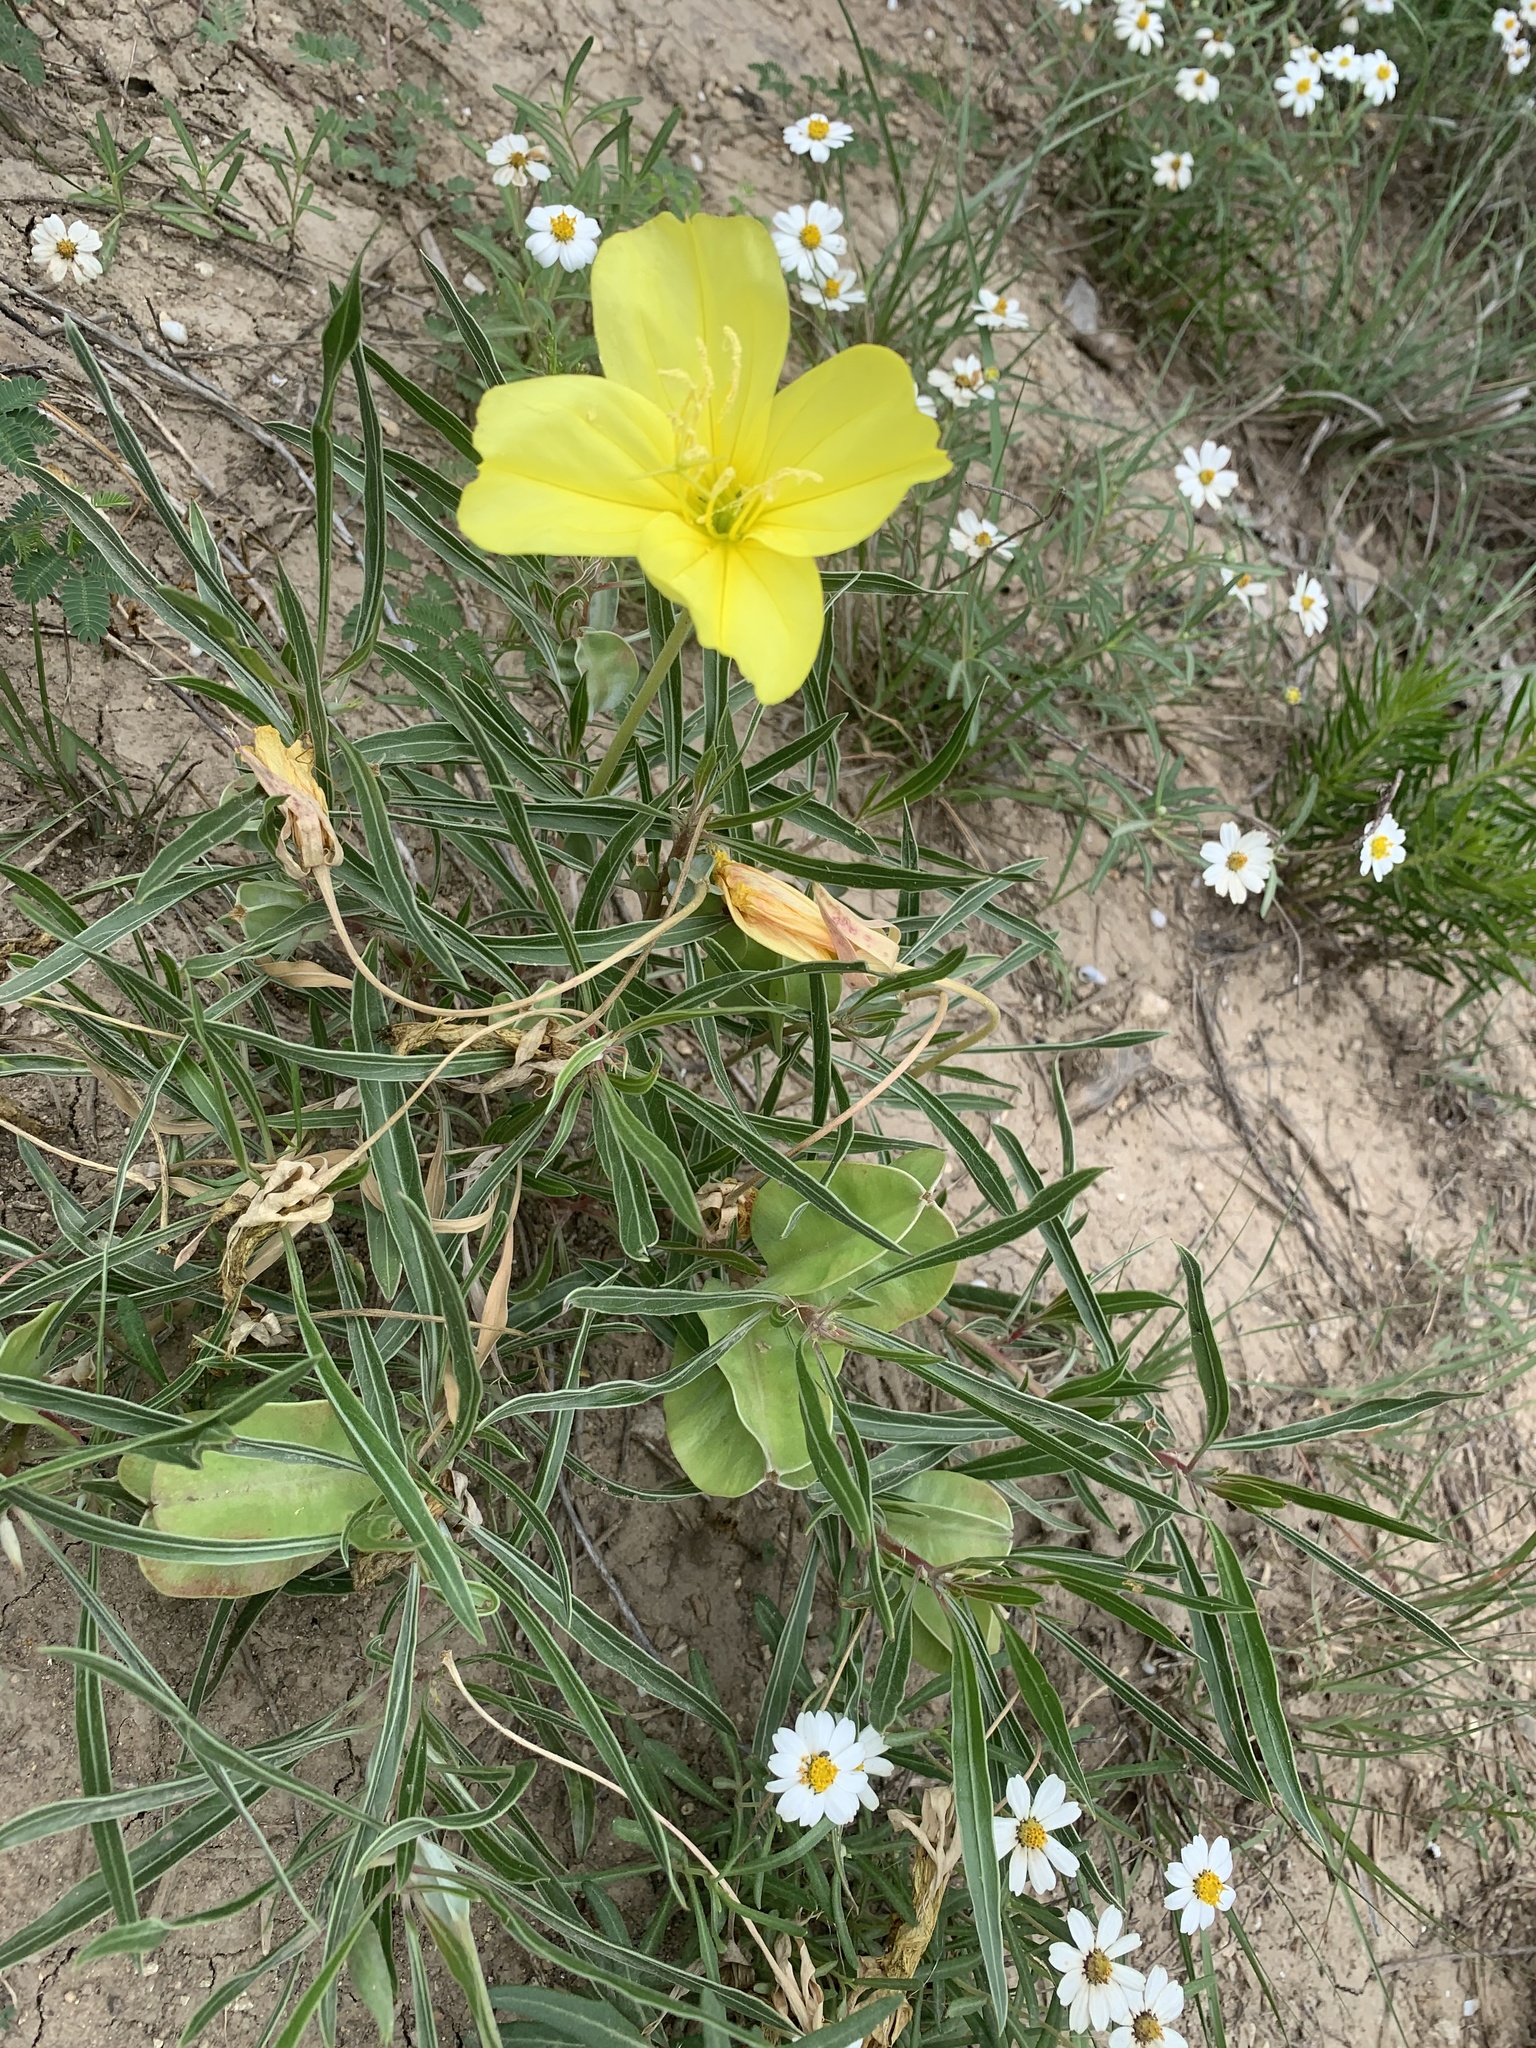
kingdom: Plantae
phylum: Tracheophyta
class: Magnoliopsida
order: Myrtales
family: Onagraceae
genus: Oenothera
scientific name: Oenothera macrocarpa
